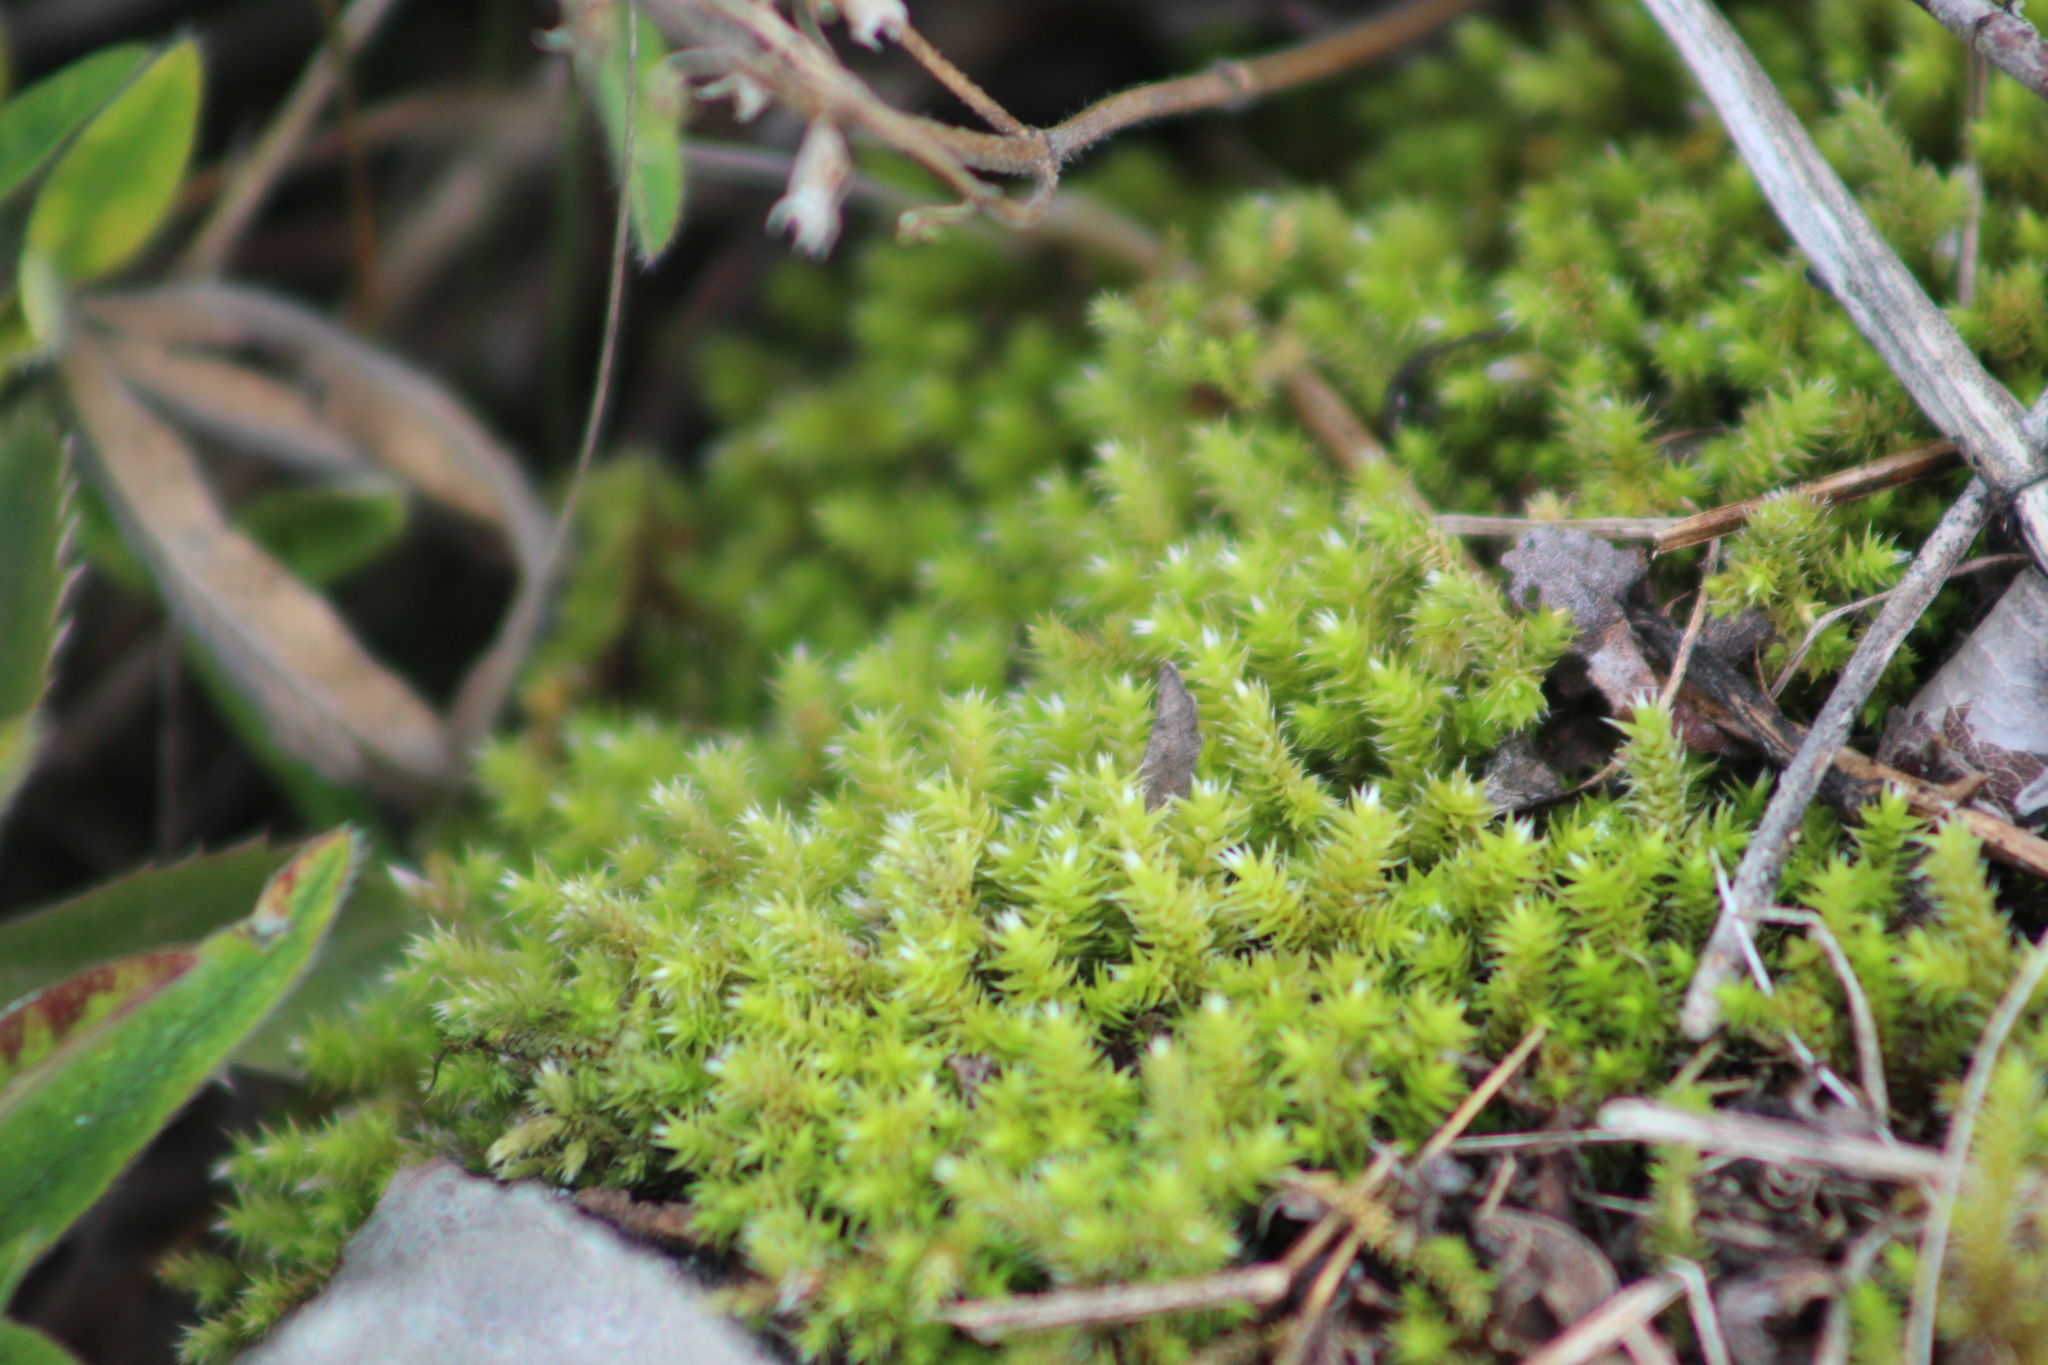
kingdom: Plantae
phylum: Bryophyta
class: Bryopsida
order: Hedwigiales
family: Hedwigiaceae
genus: Hedwigia
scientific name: Hedwigia ciliata
